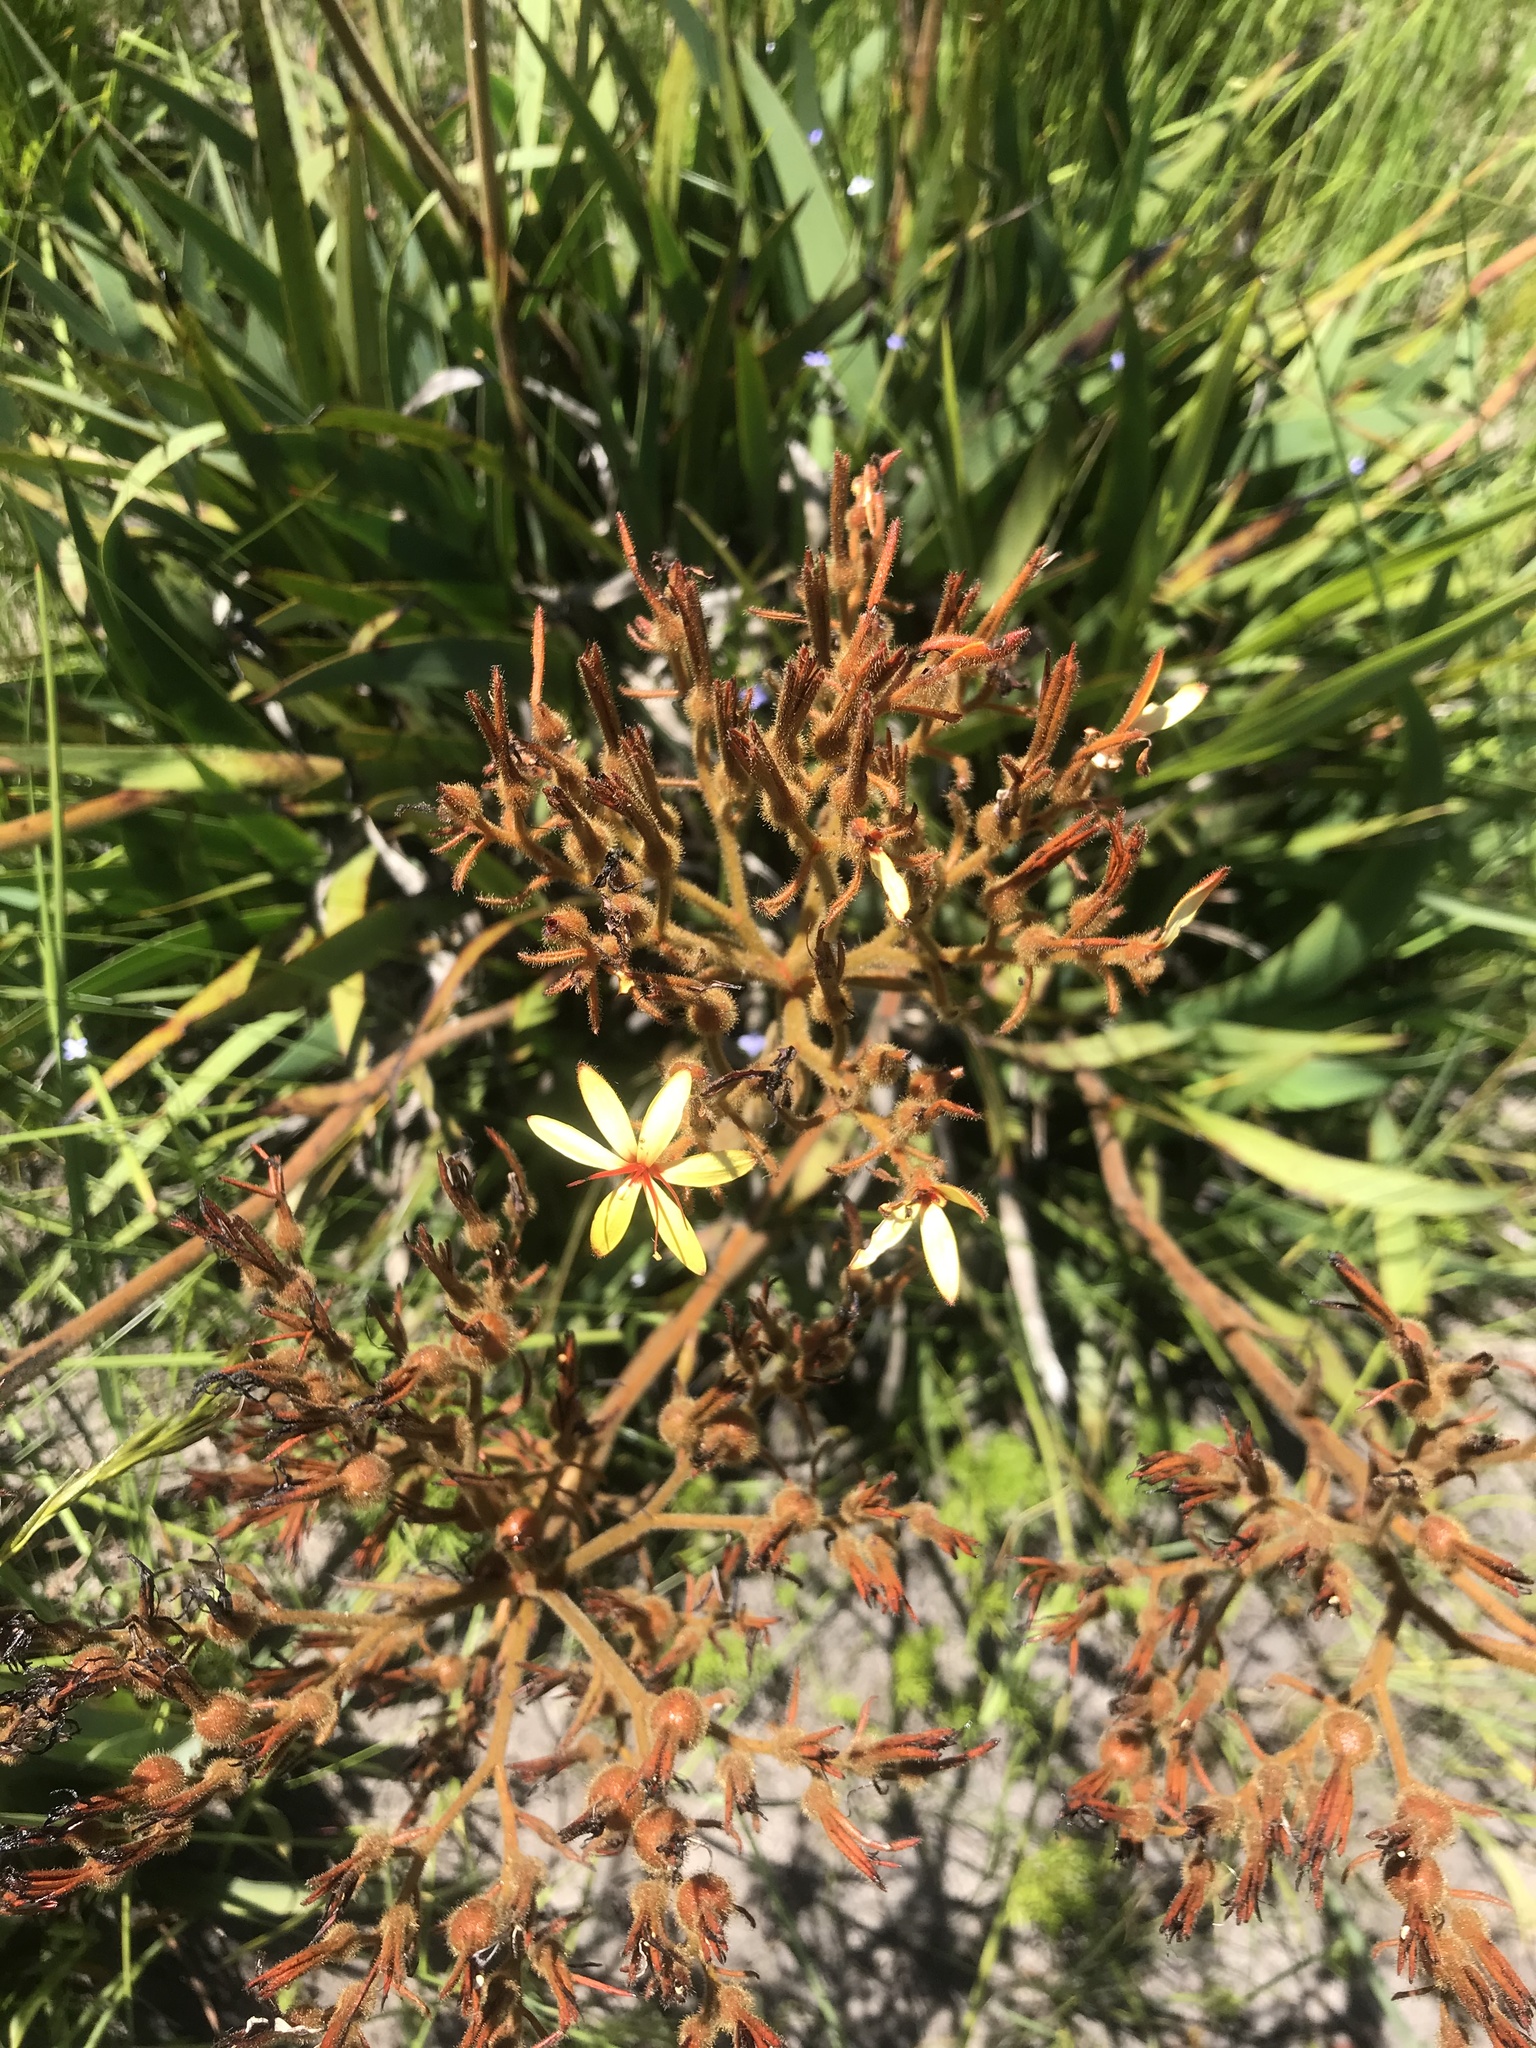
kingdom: Plantae
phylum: Tracheophyta
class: Liliopsida
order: Commelinales
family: Haemodoraceae
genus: Dilatris
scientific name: Dilatris viscosa
